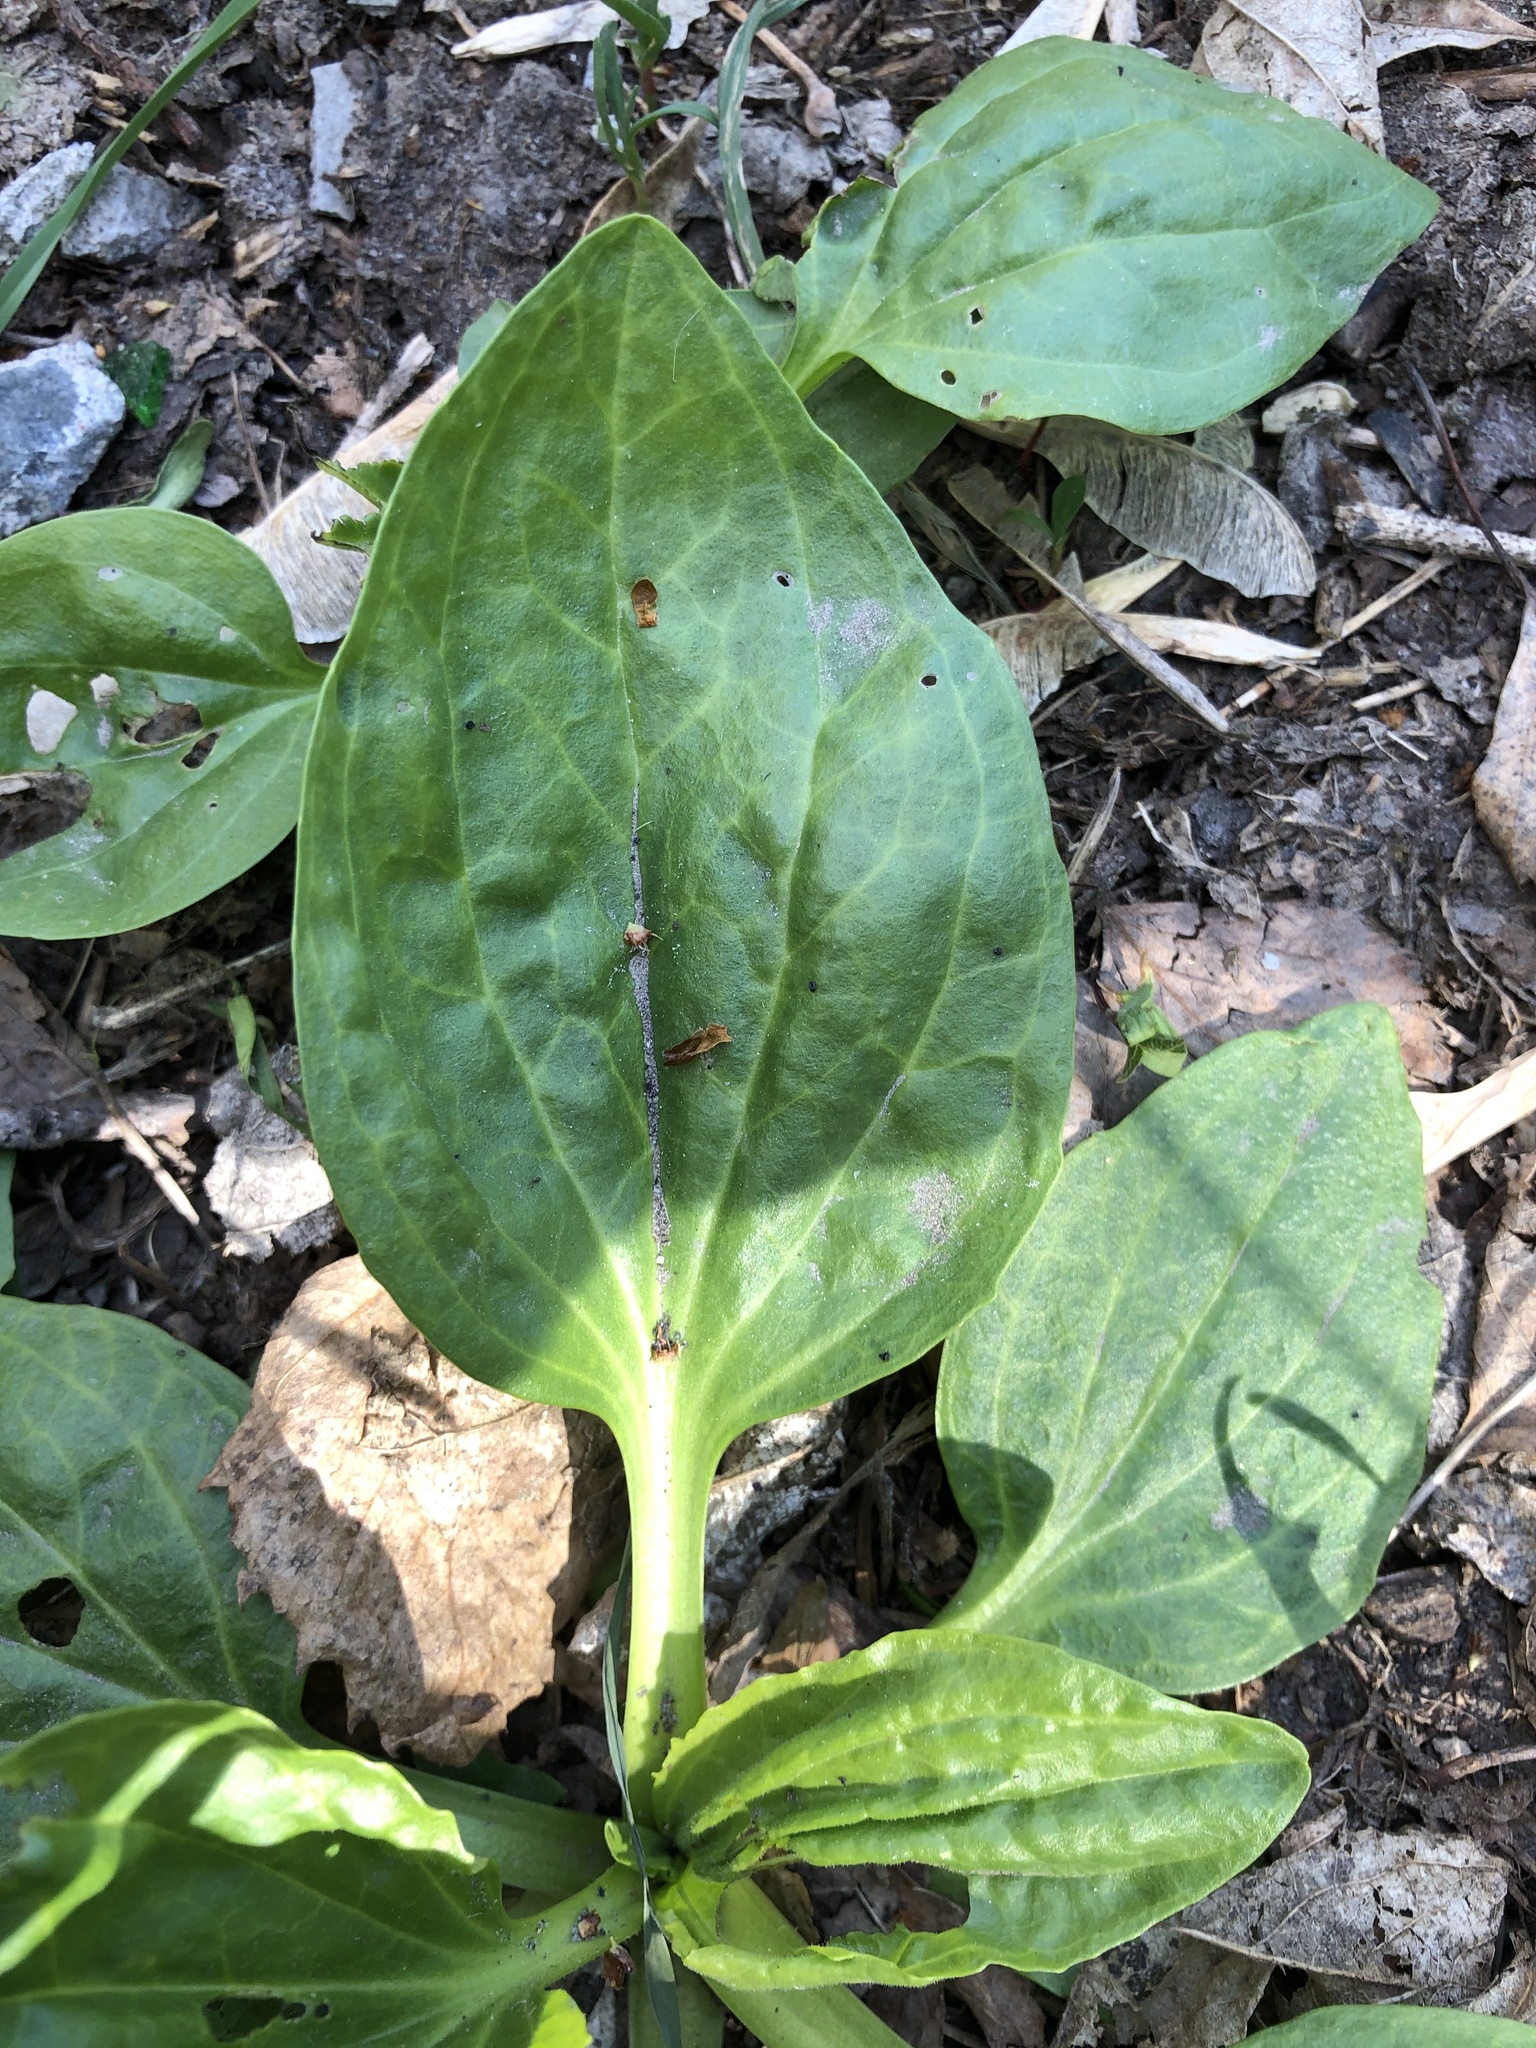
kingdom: Plantae
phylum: Tracheophyta
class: Magnoliopsida
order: Lamiales
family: Plantaginaceae
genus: Plantago
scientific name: Plantago major
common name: Common plantain
